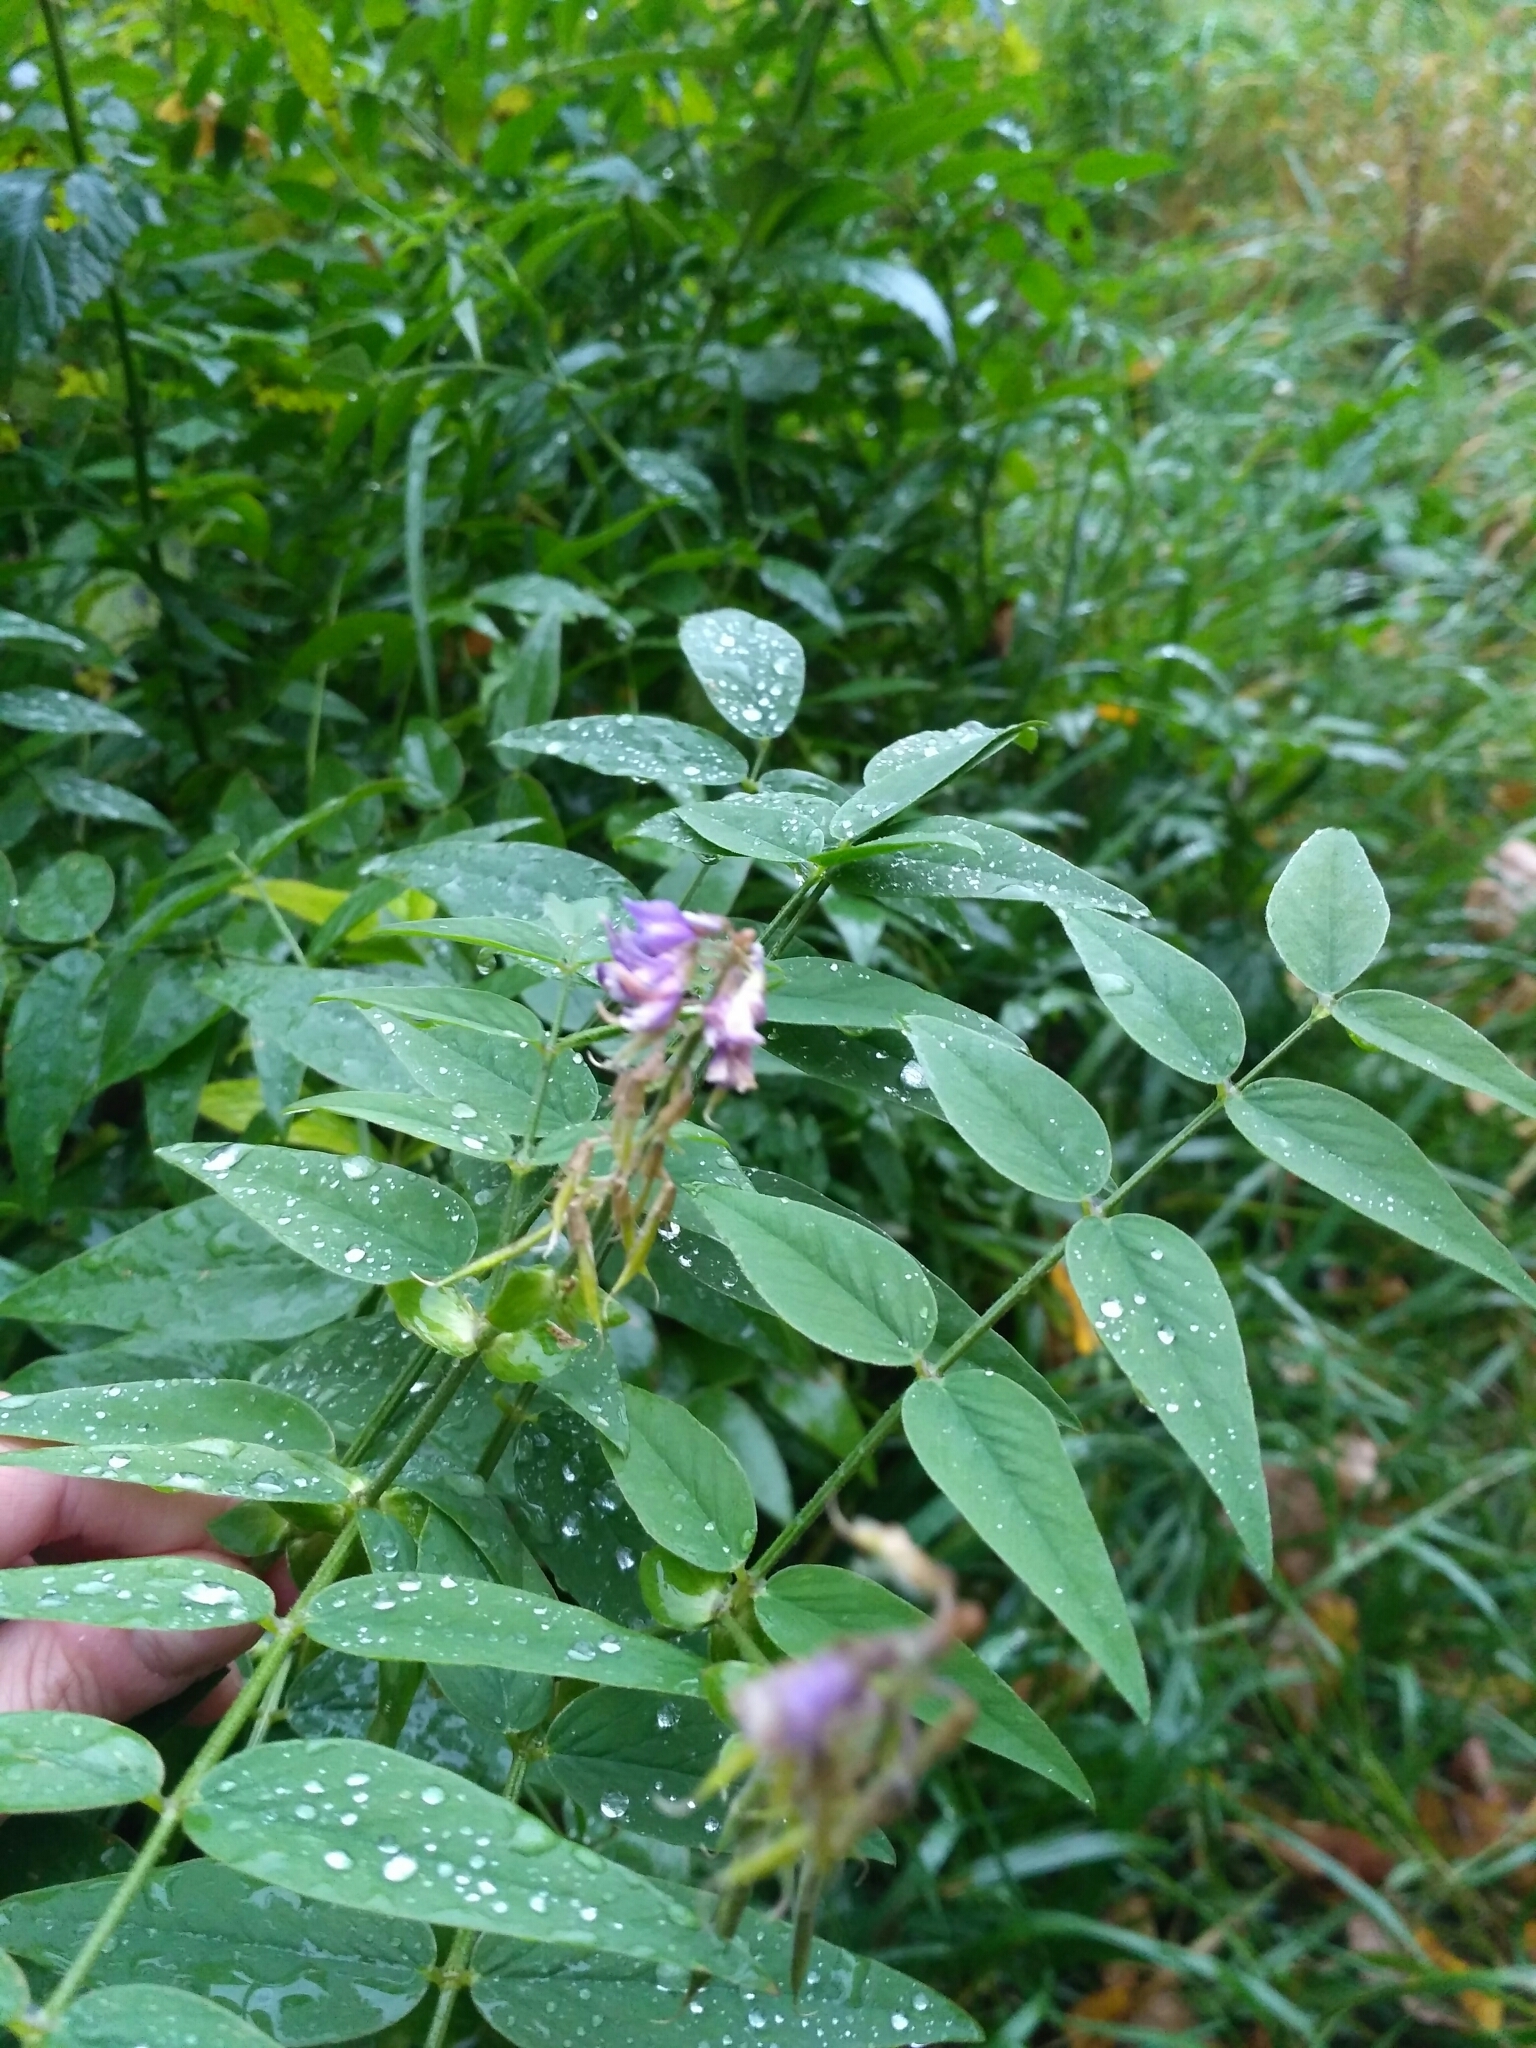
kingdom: Plantae
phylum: Tracheophyta
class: Magnoliopsida
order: Fabales
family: Fabaceae
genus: Galega
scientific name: Galega orientalis
